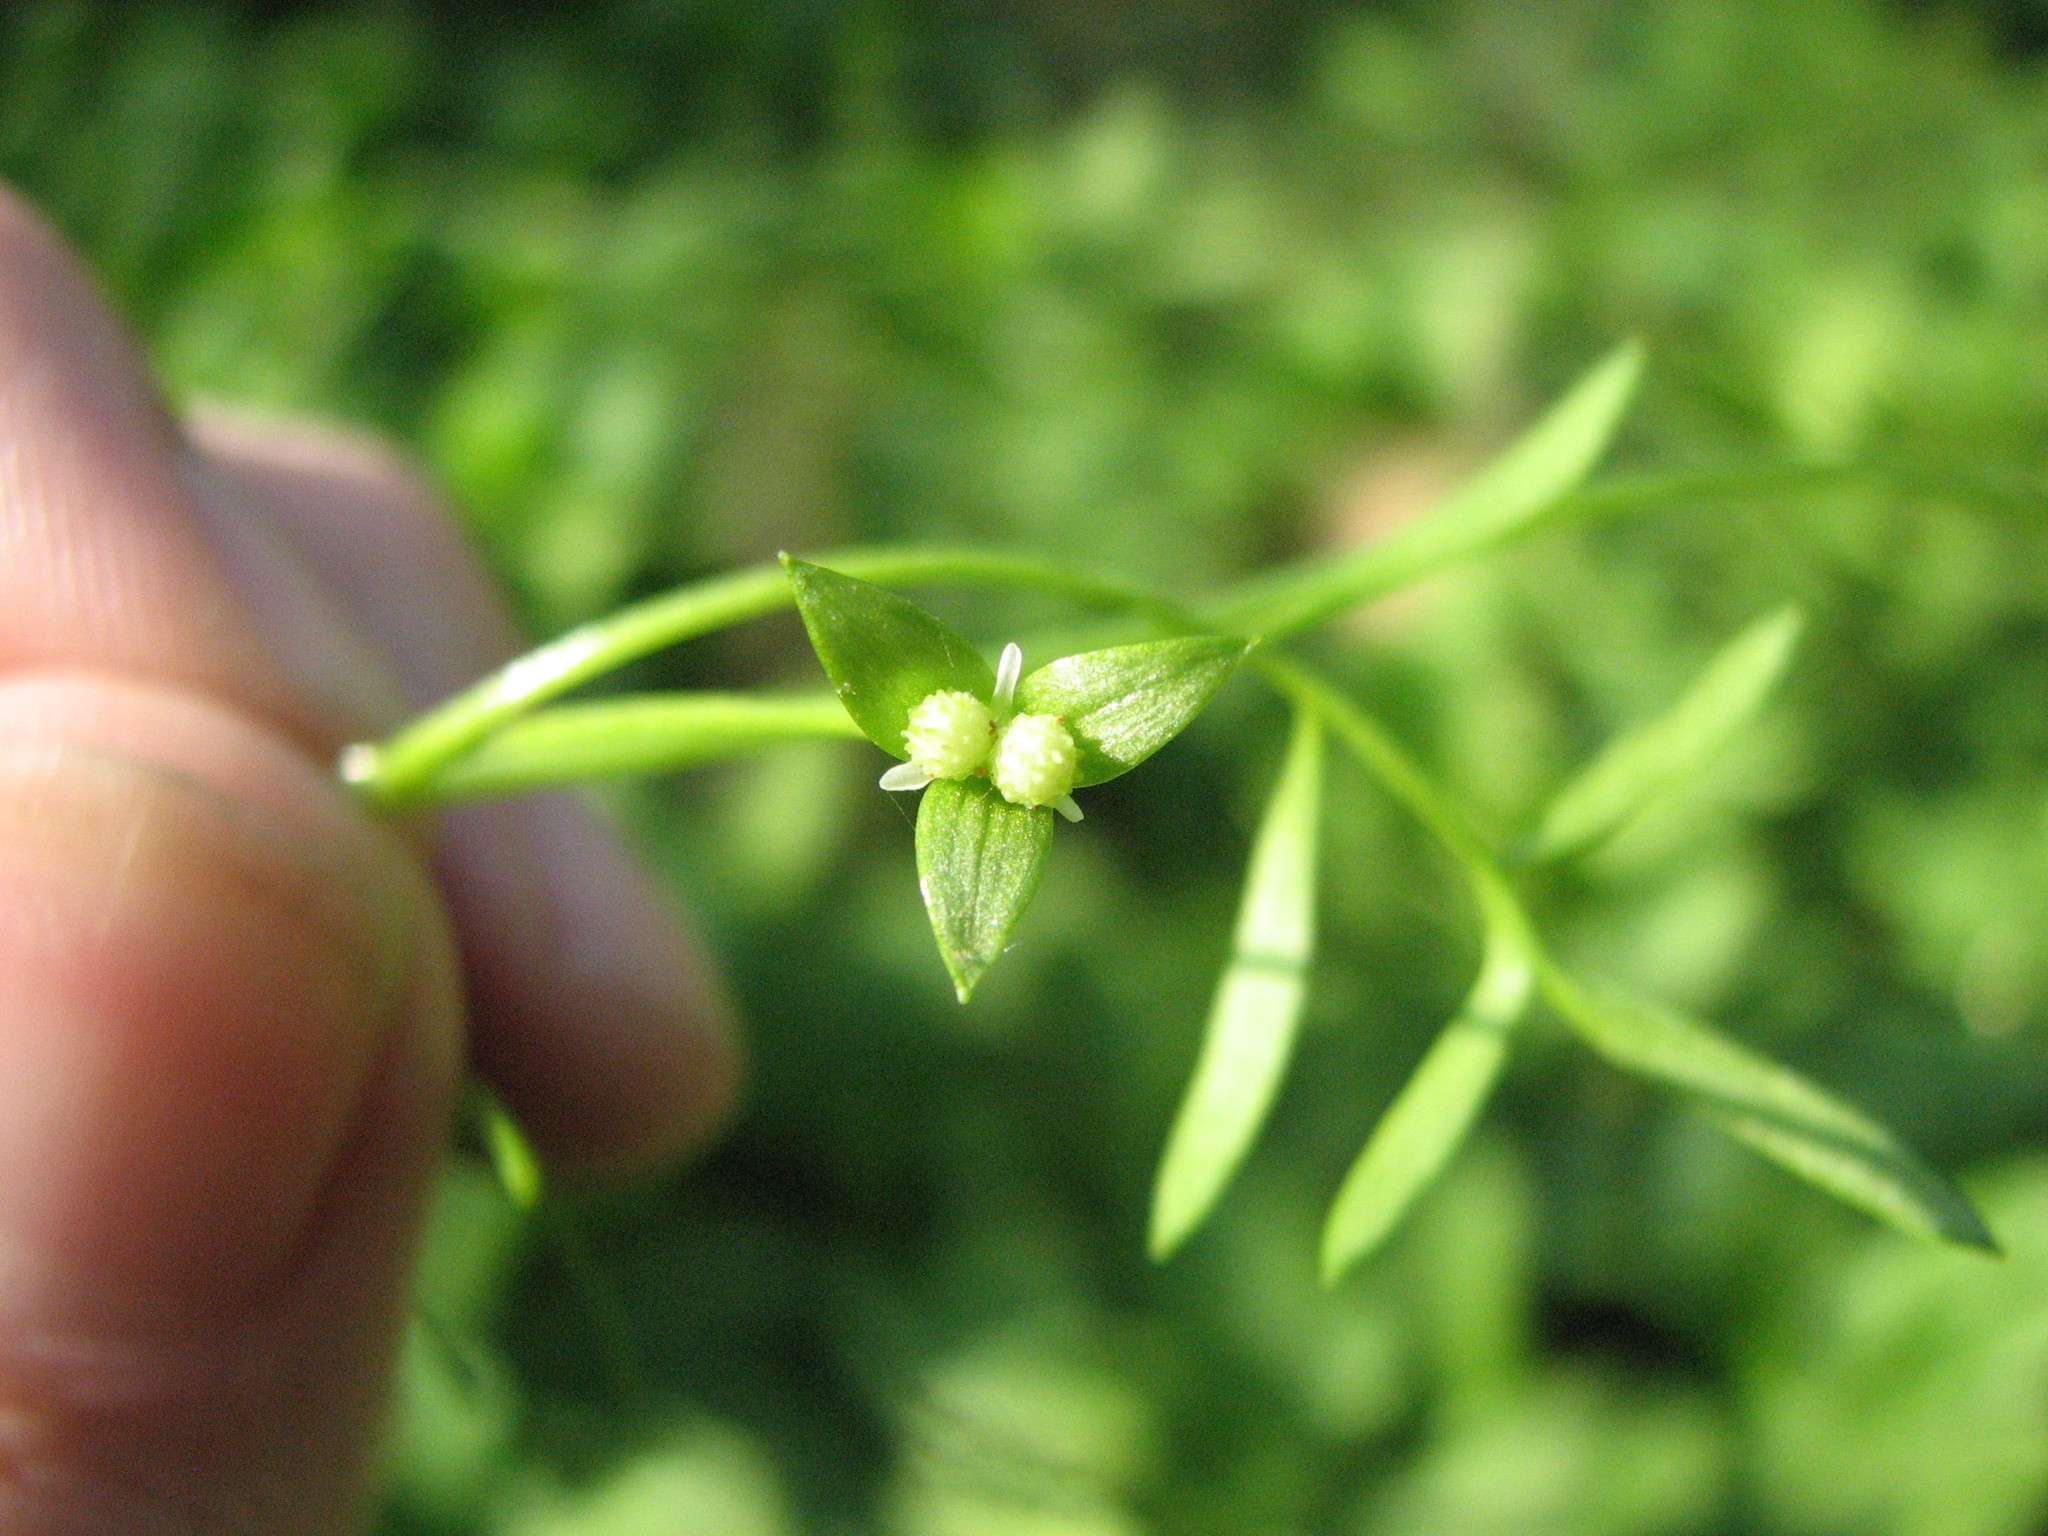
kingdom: Plantae
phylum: Tracheophyta
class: Magnoliopsida
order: Brassicales
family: Limnanthaceae
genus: Floerkea
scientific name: Floerkea proserpinacoides
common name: False mermaid
